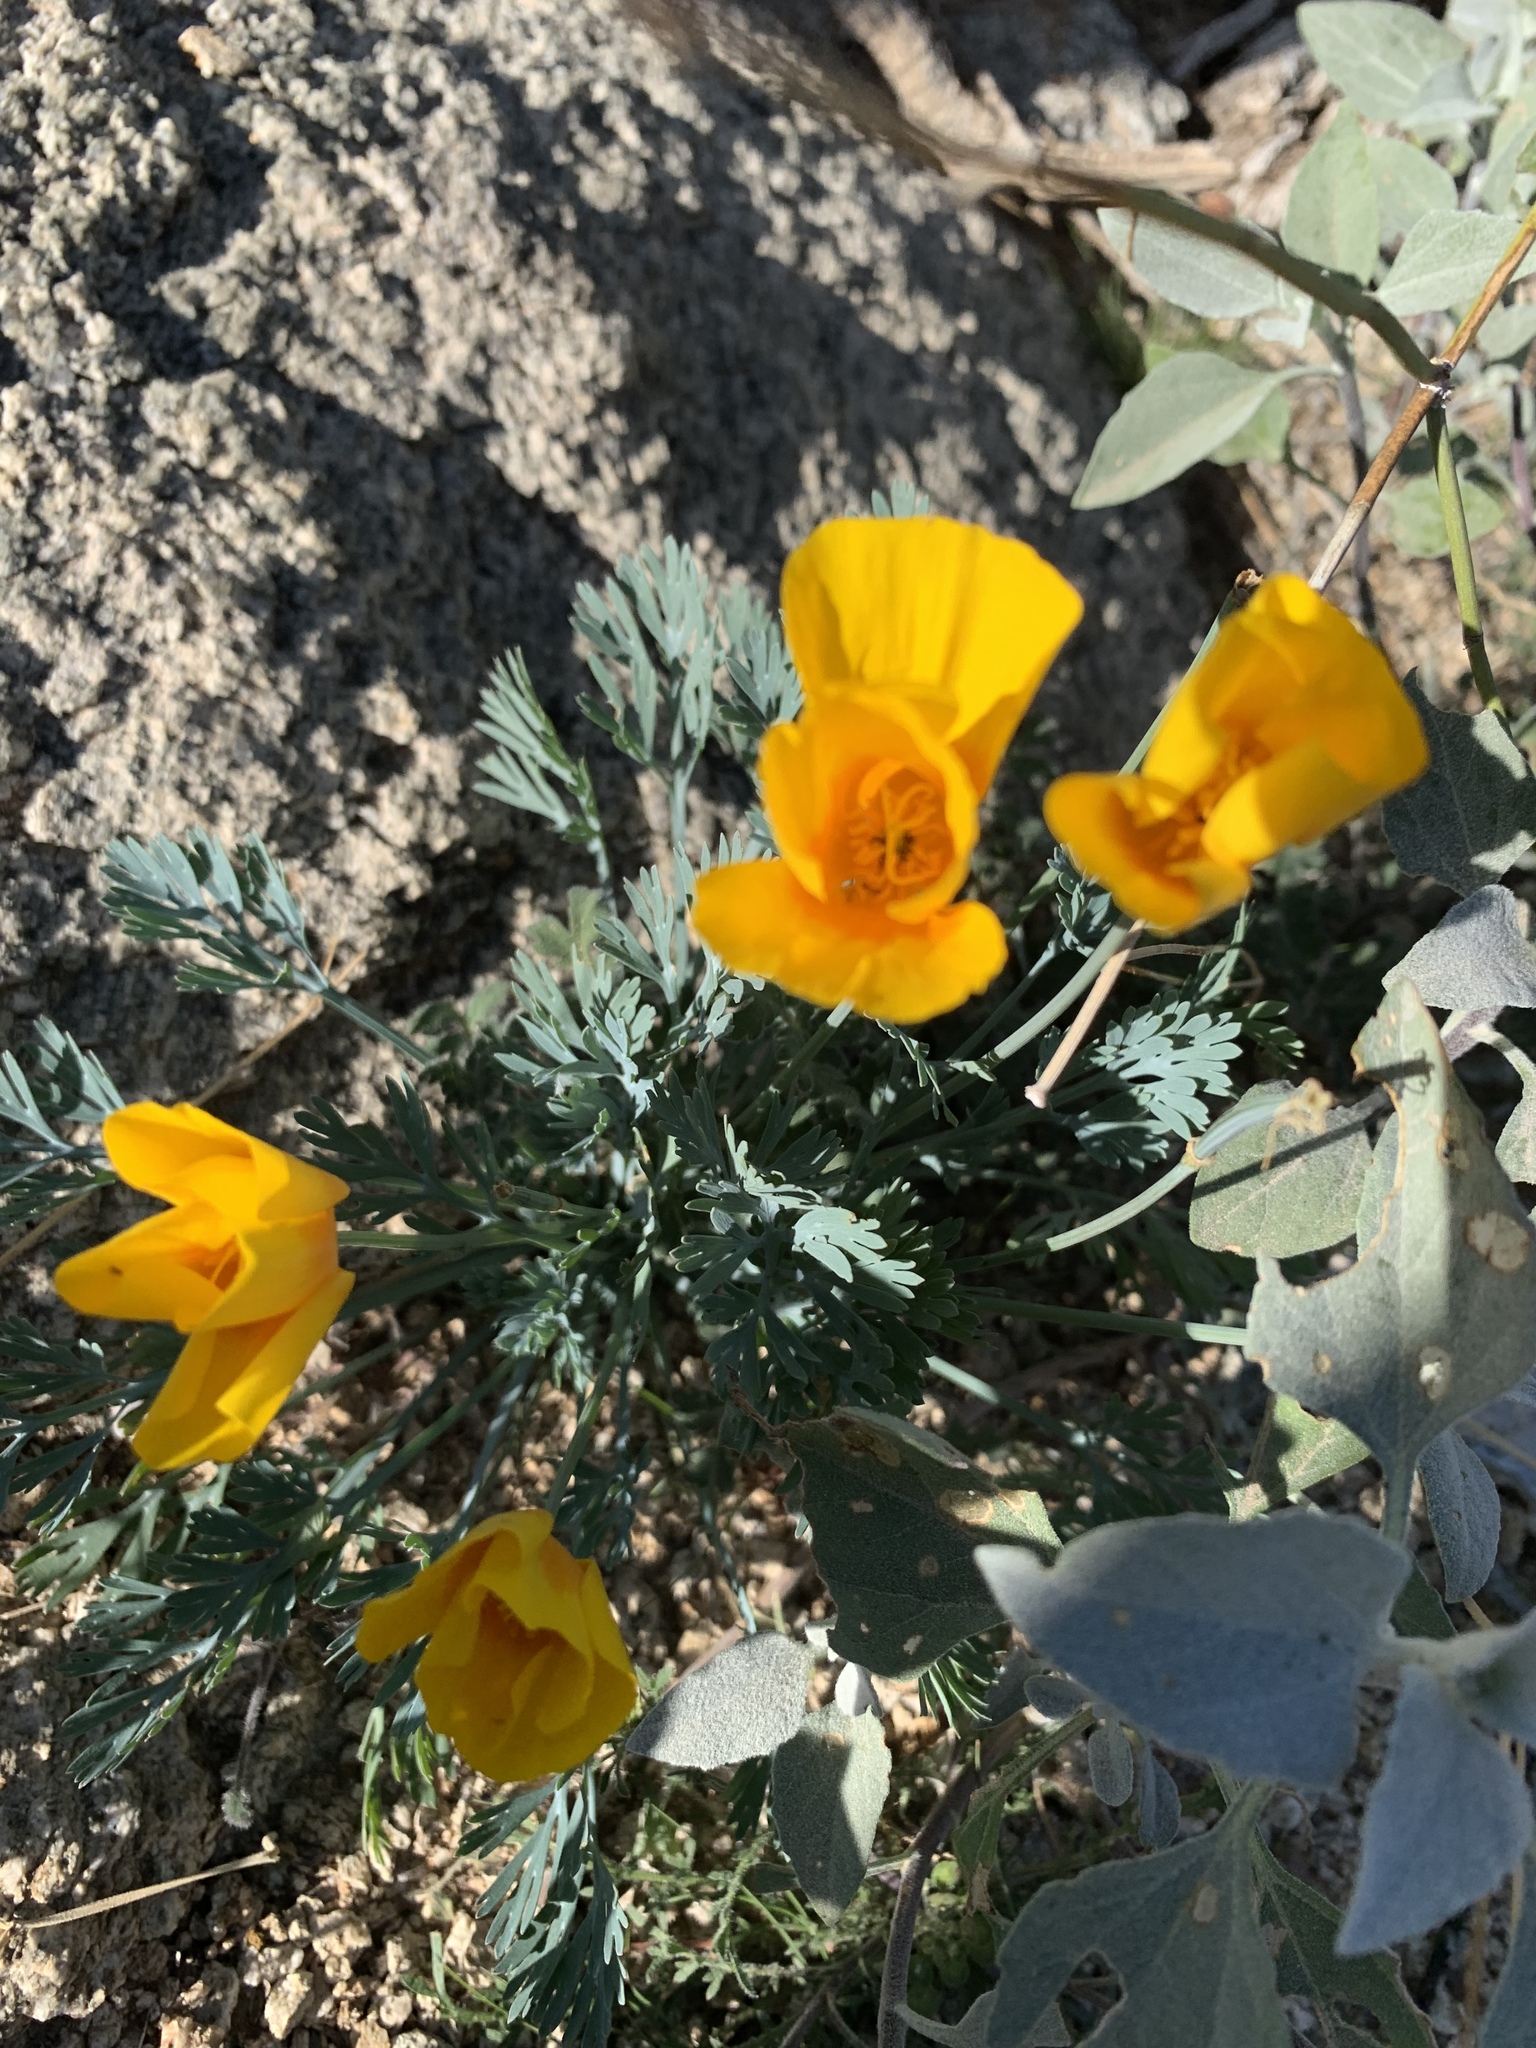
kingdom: Plantae
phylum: Tracheophyta
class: Magnoliopsida
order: Ranunculales
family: Papaveraceae
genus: Eschscholzia
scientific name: Eschscholzia californica
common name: California poppy
